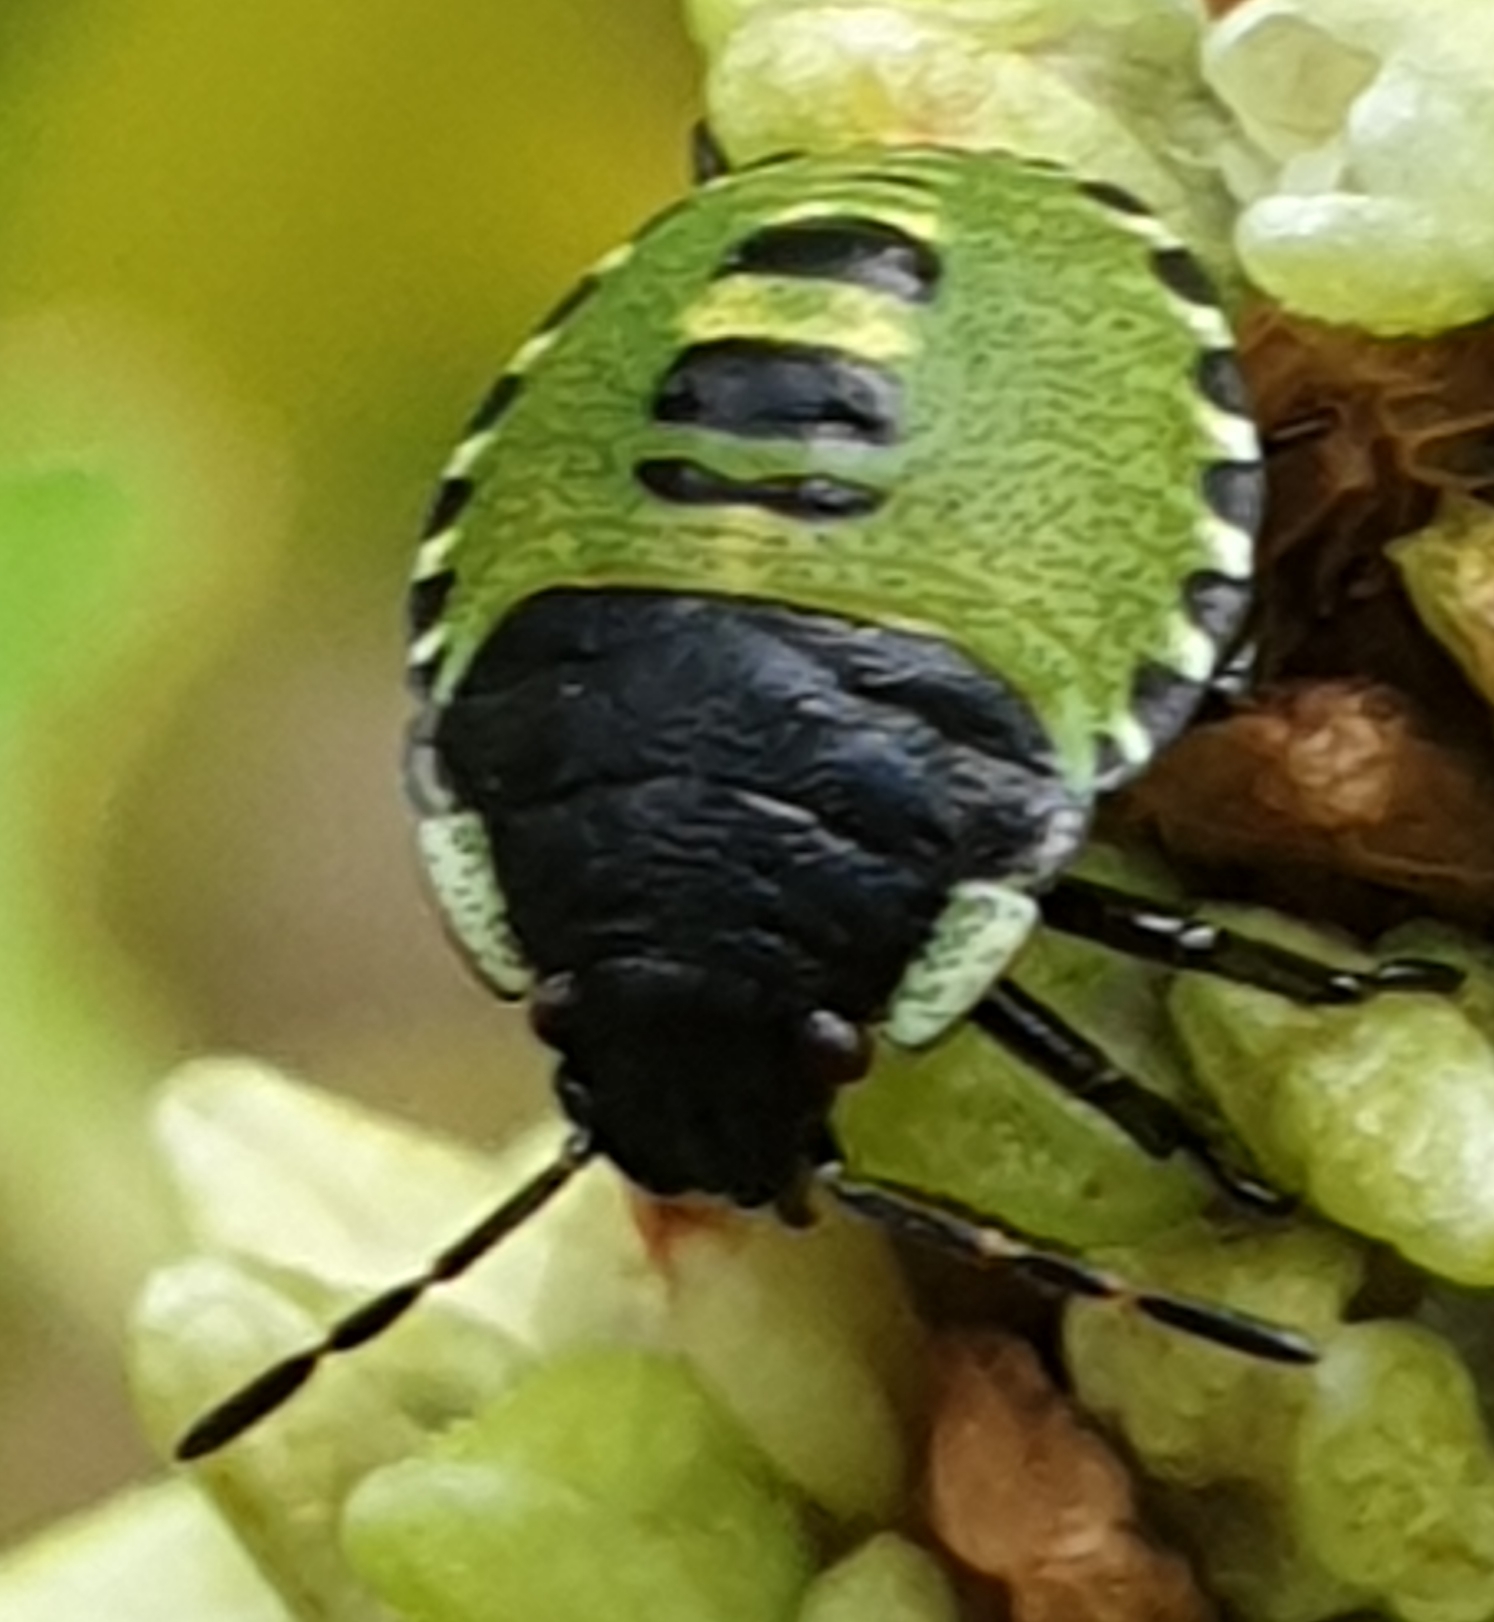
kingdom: Animalia
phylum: Arthropoda
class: Insecta
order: Hemiptera
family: Pentatomidae
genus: Palomena
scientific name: Palomena prasina
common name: Green shieldbug
